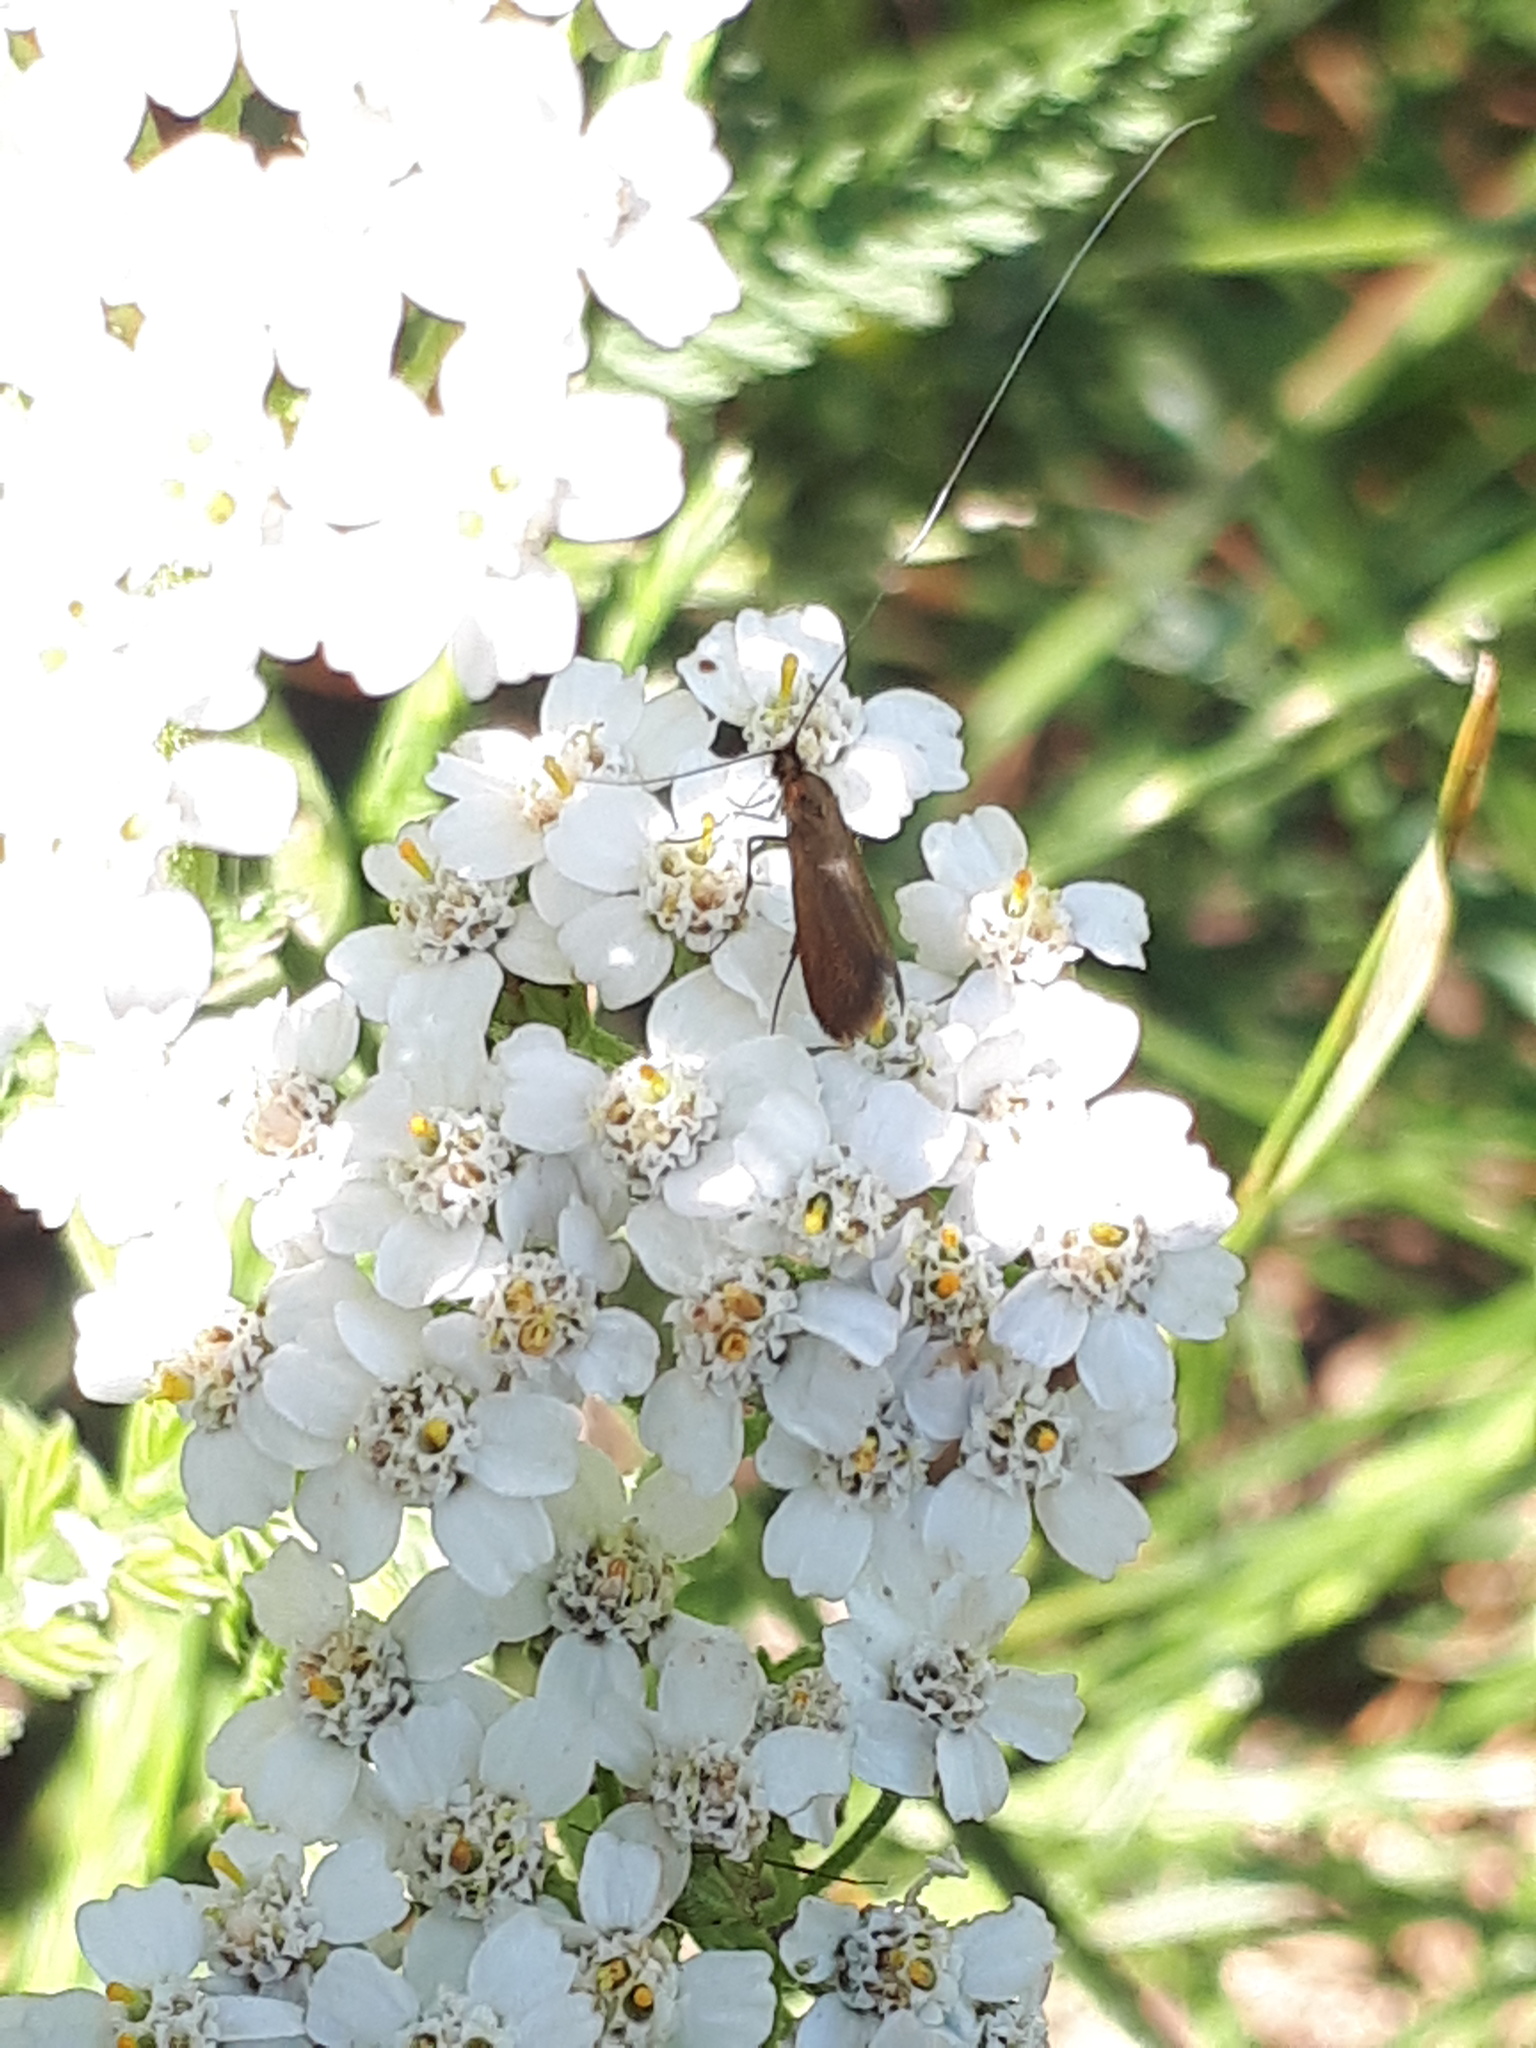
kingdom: Animalia
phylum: Arthropoda
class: Insecta
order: Lepidoptera
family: Adelidae
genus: Adela
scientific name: Adela violella
